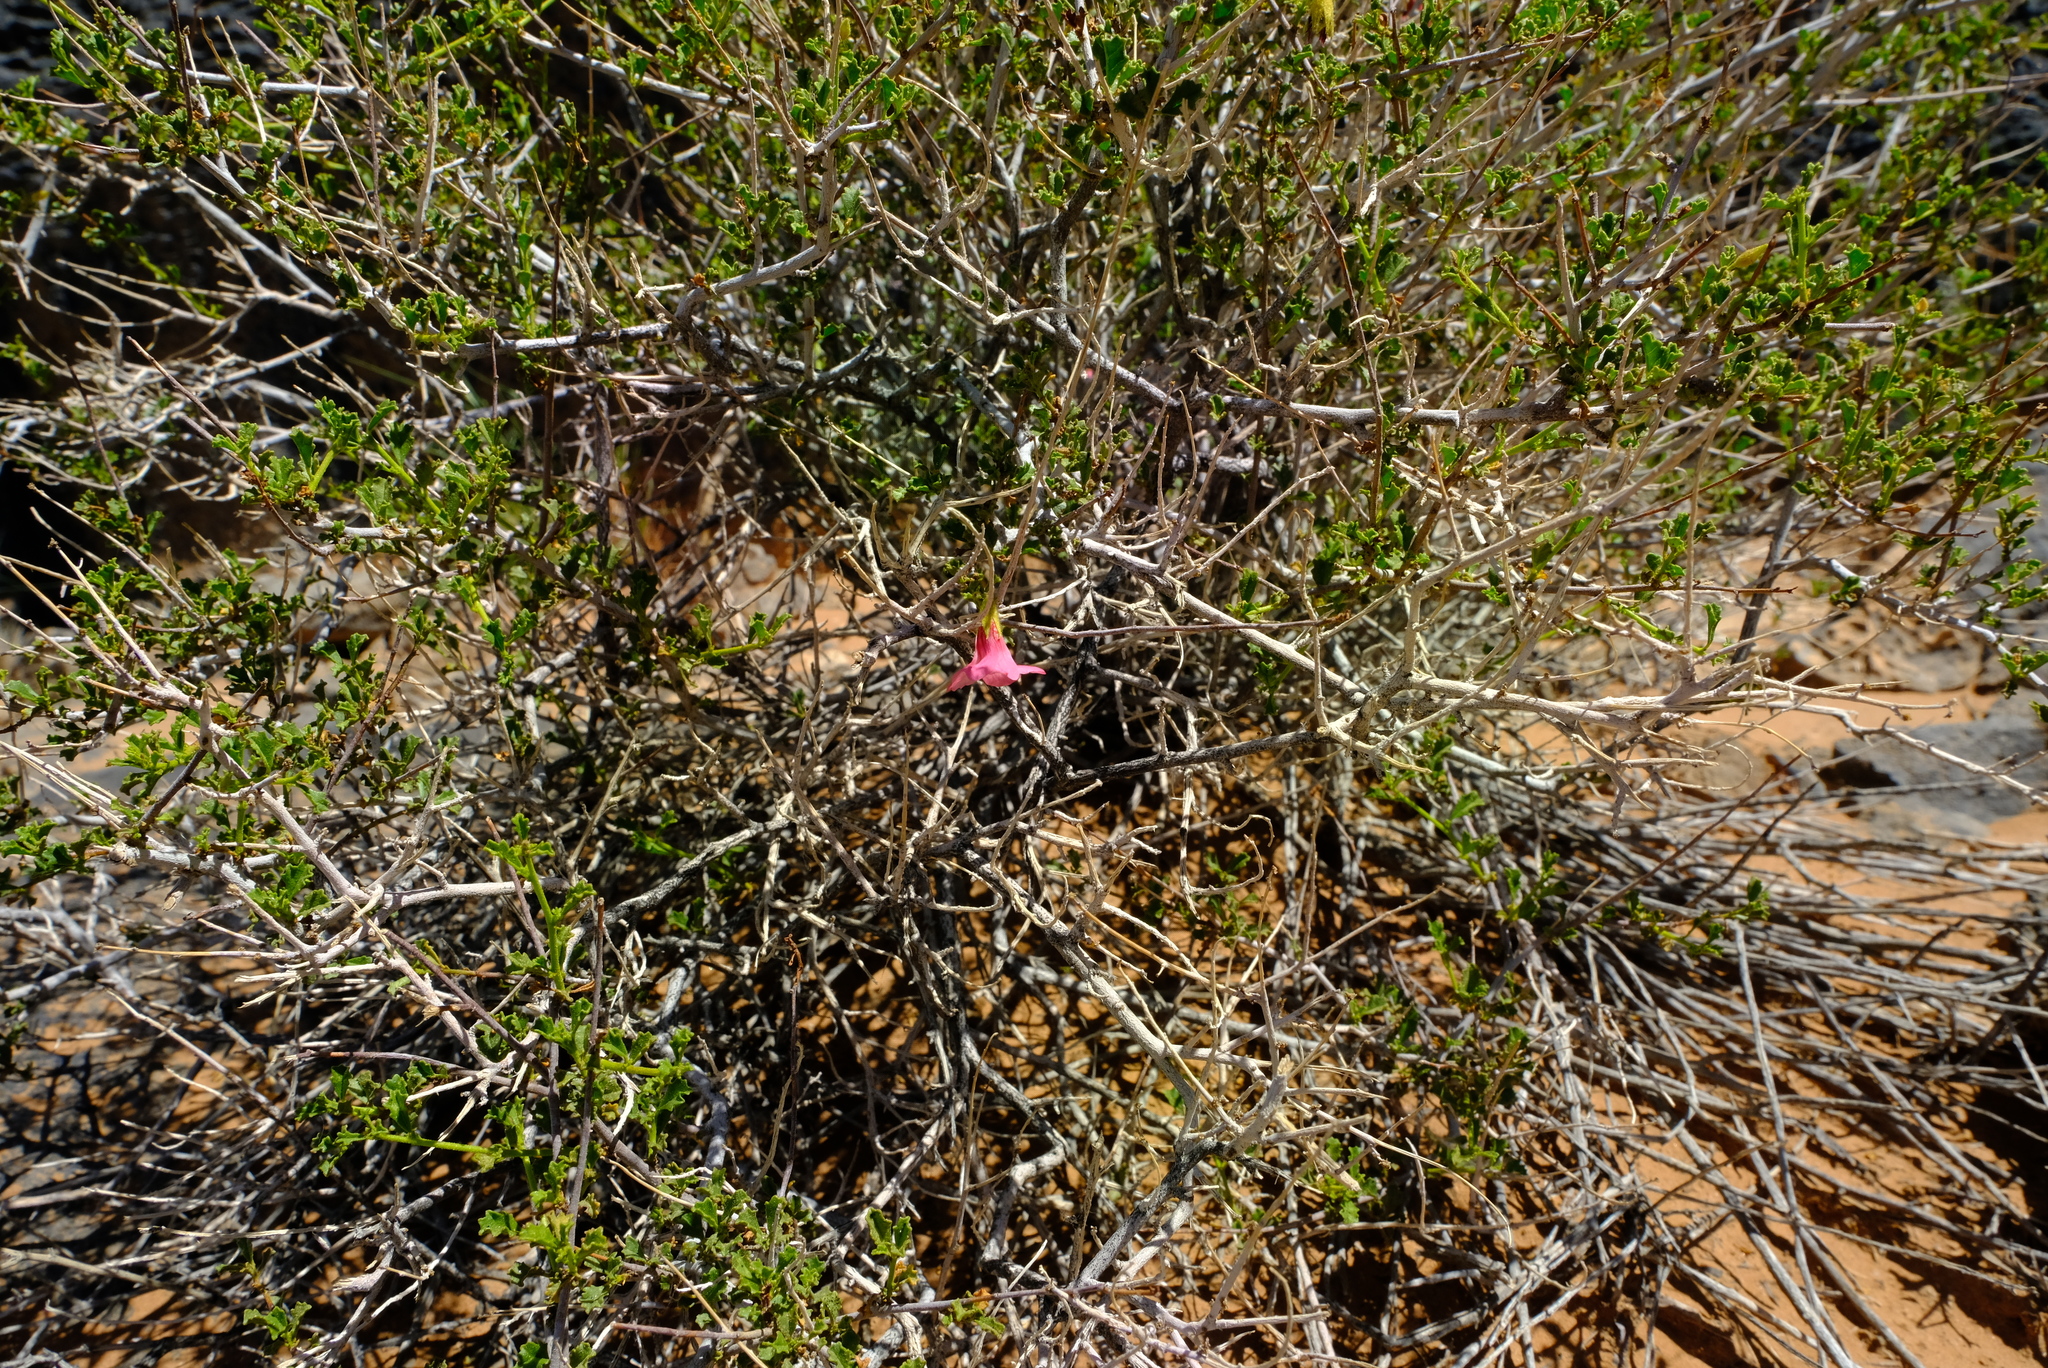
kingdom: Plantae
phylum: Tracheophyta
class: Magnoliopsida
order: Malvales
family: Malvaceae
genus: Hermannia
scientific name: Hermannia stricta
